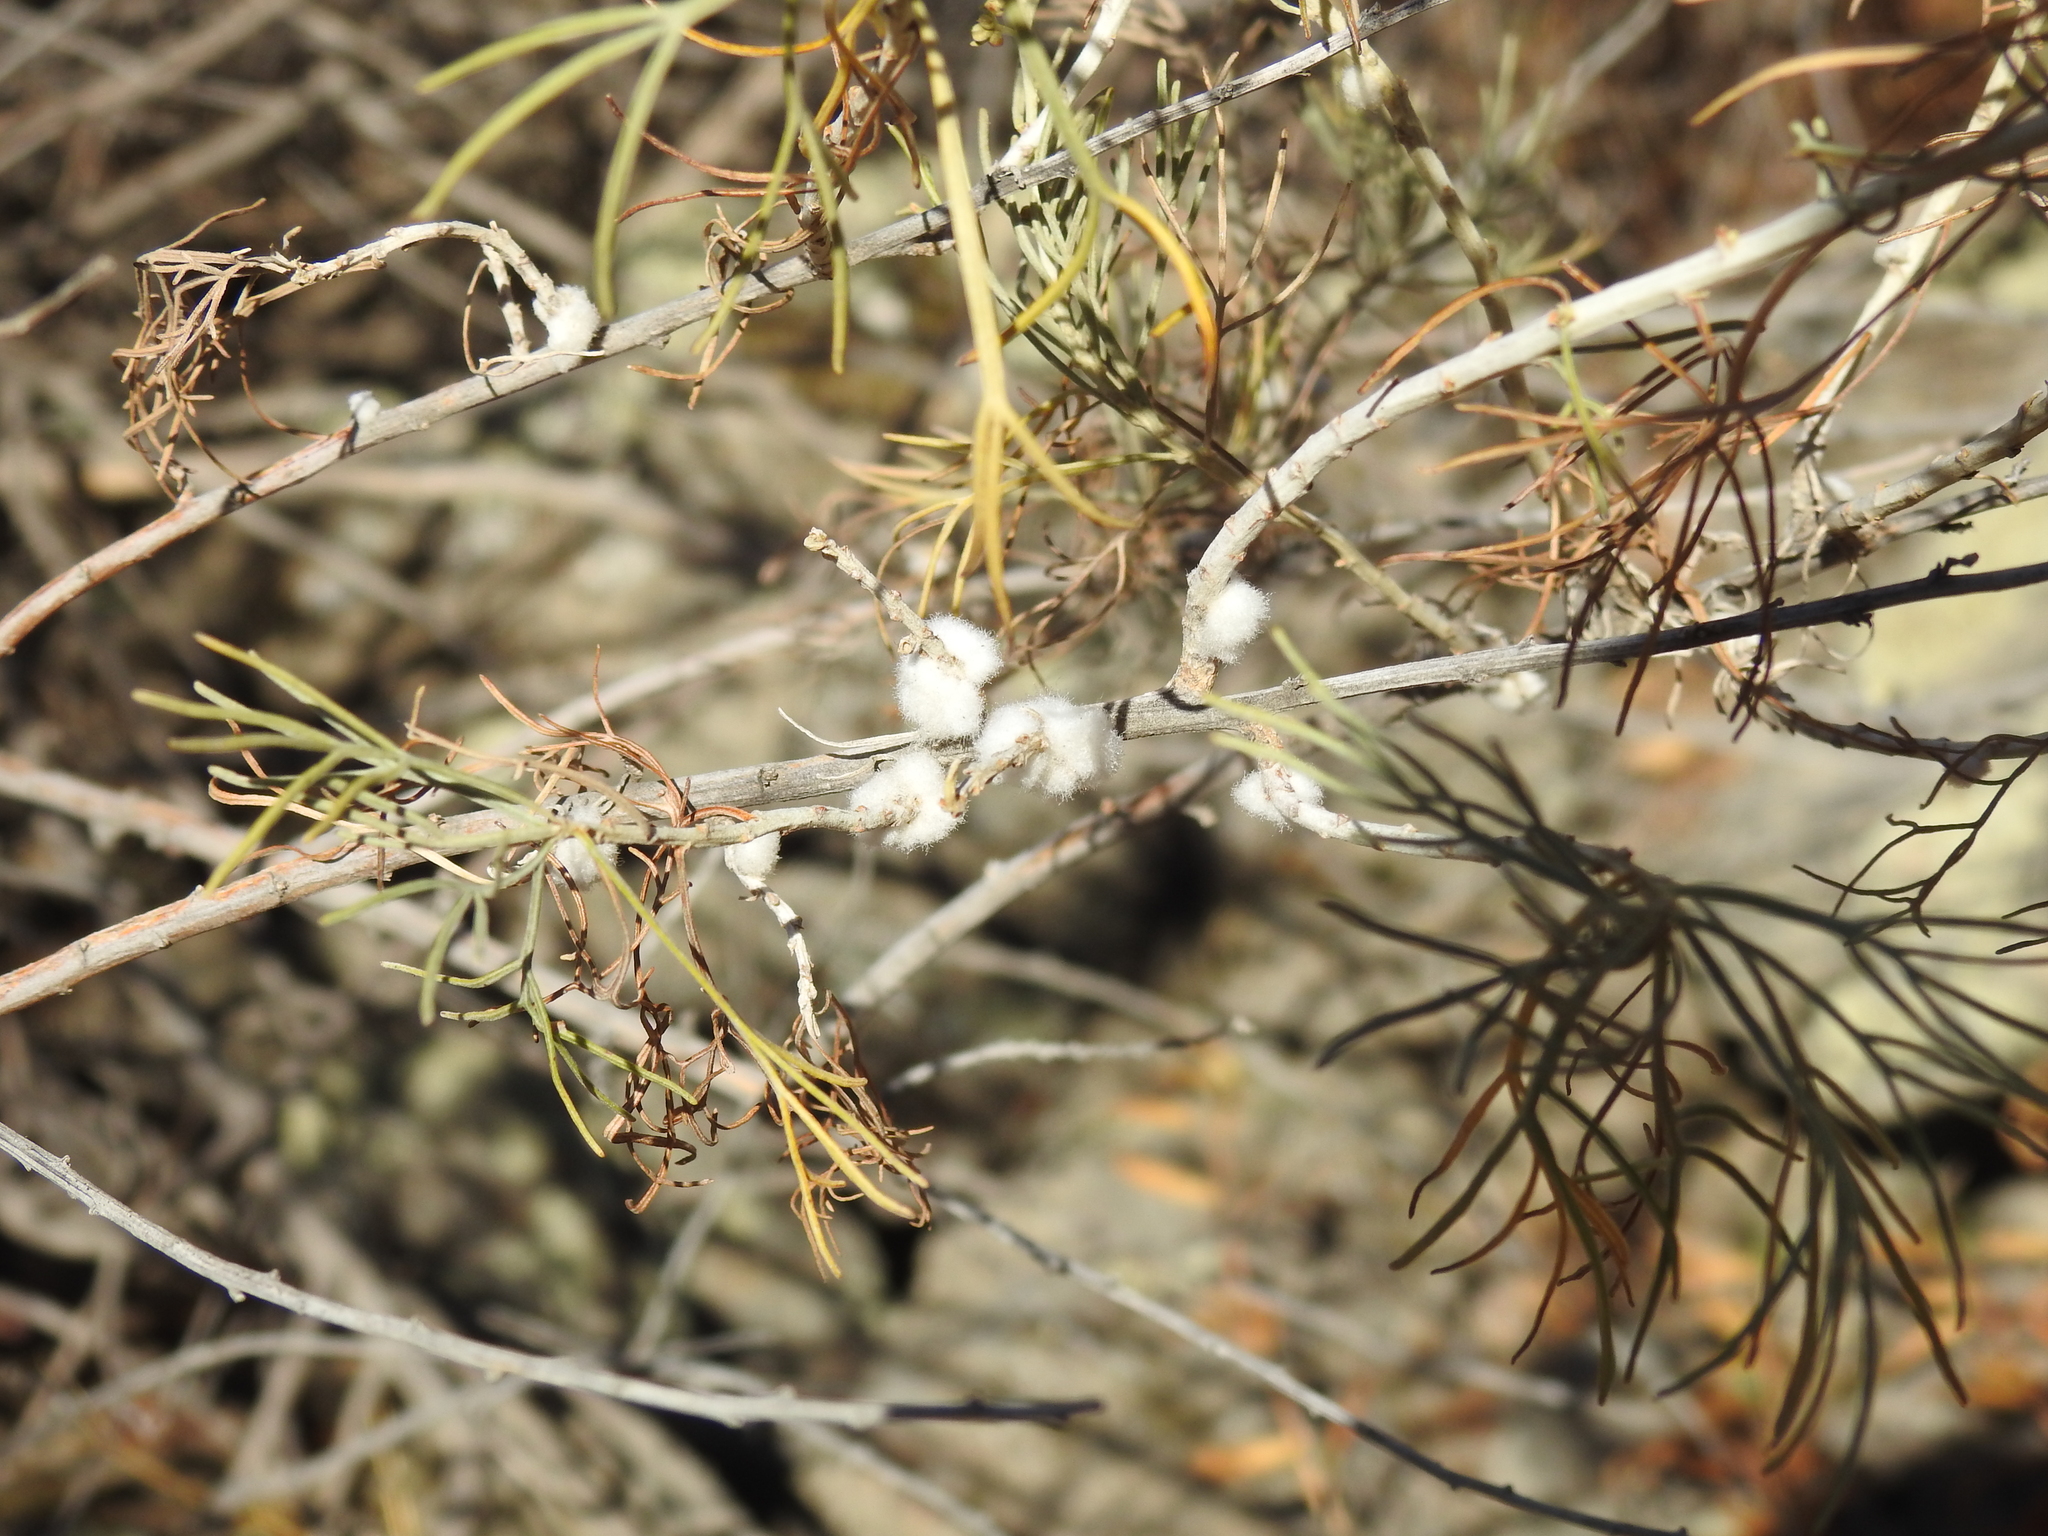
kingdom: Animalia
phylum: Arthropoda
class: Insecta
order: Diptera
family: Cecidomyiidae
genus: Rhopalomyia
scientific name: Rhopalomyia floccosa
